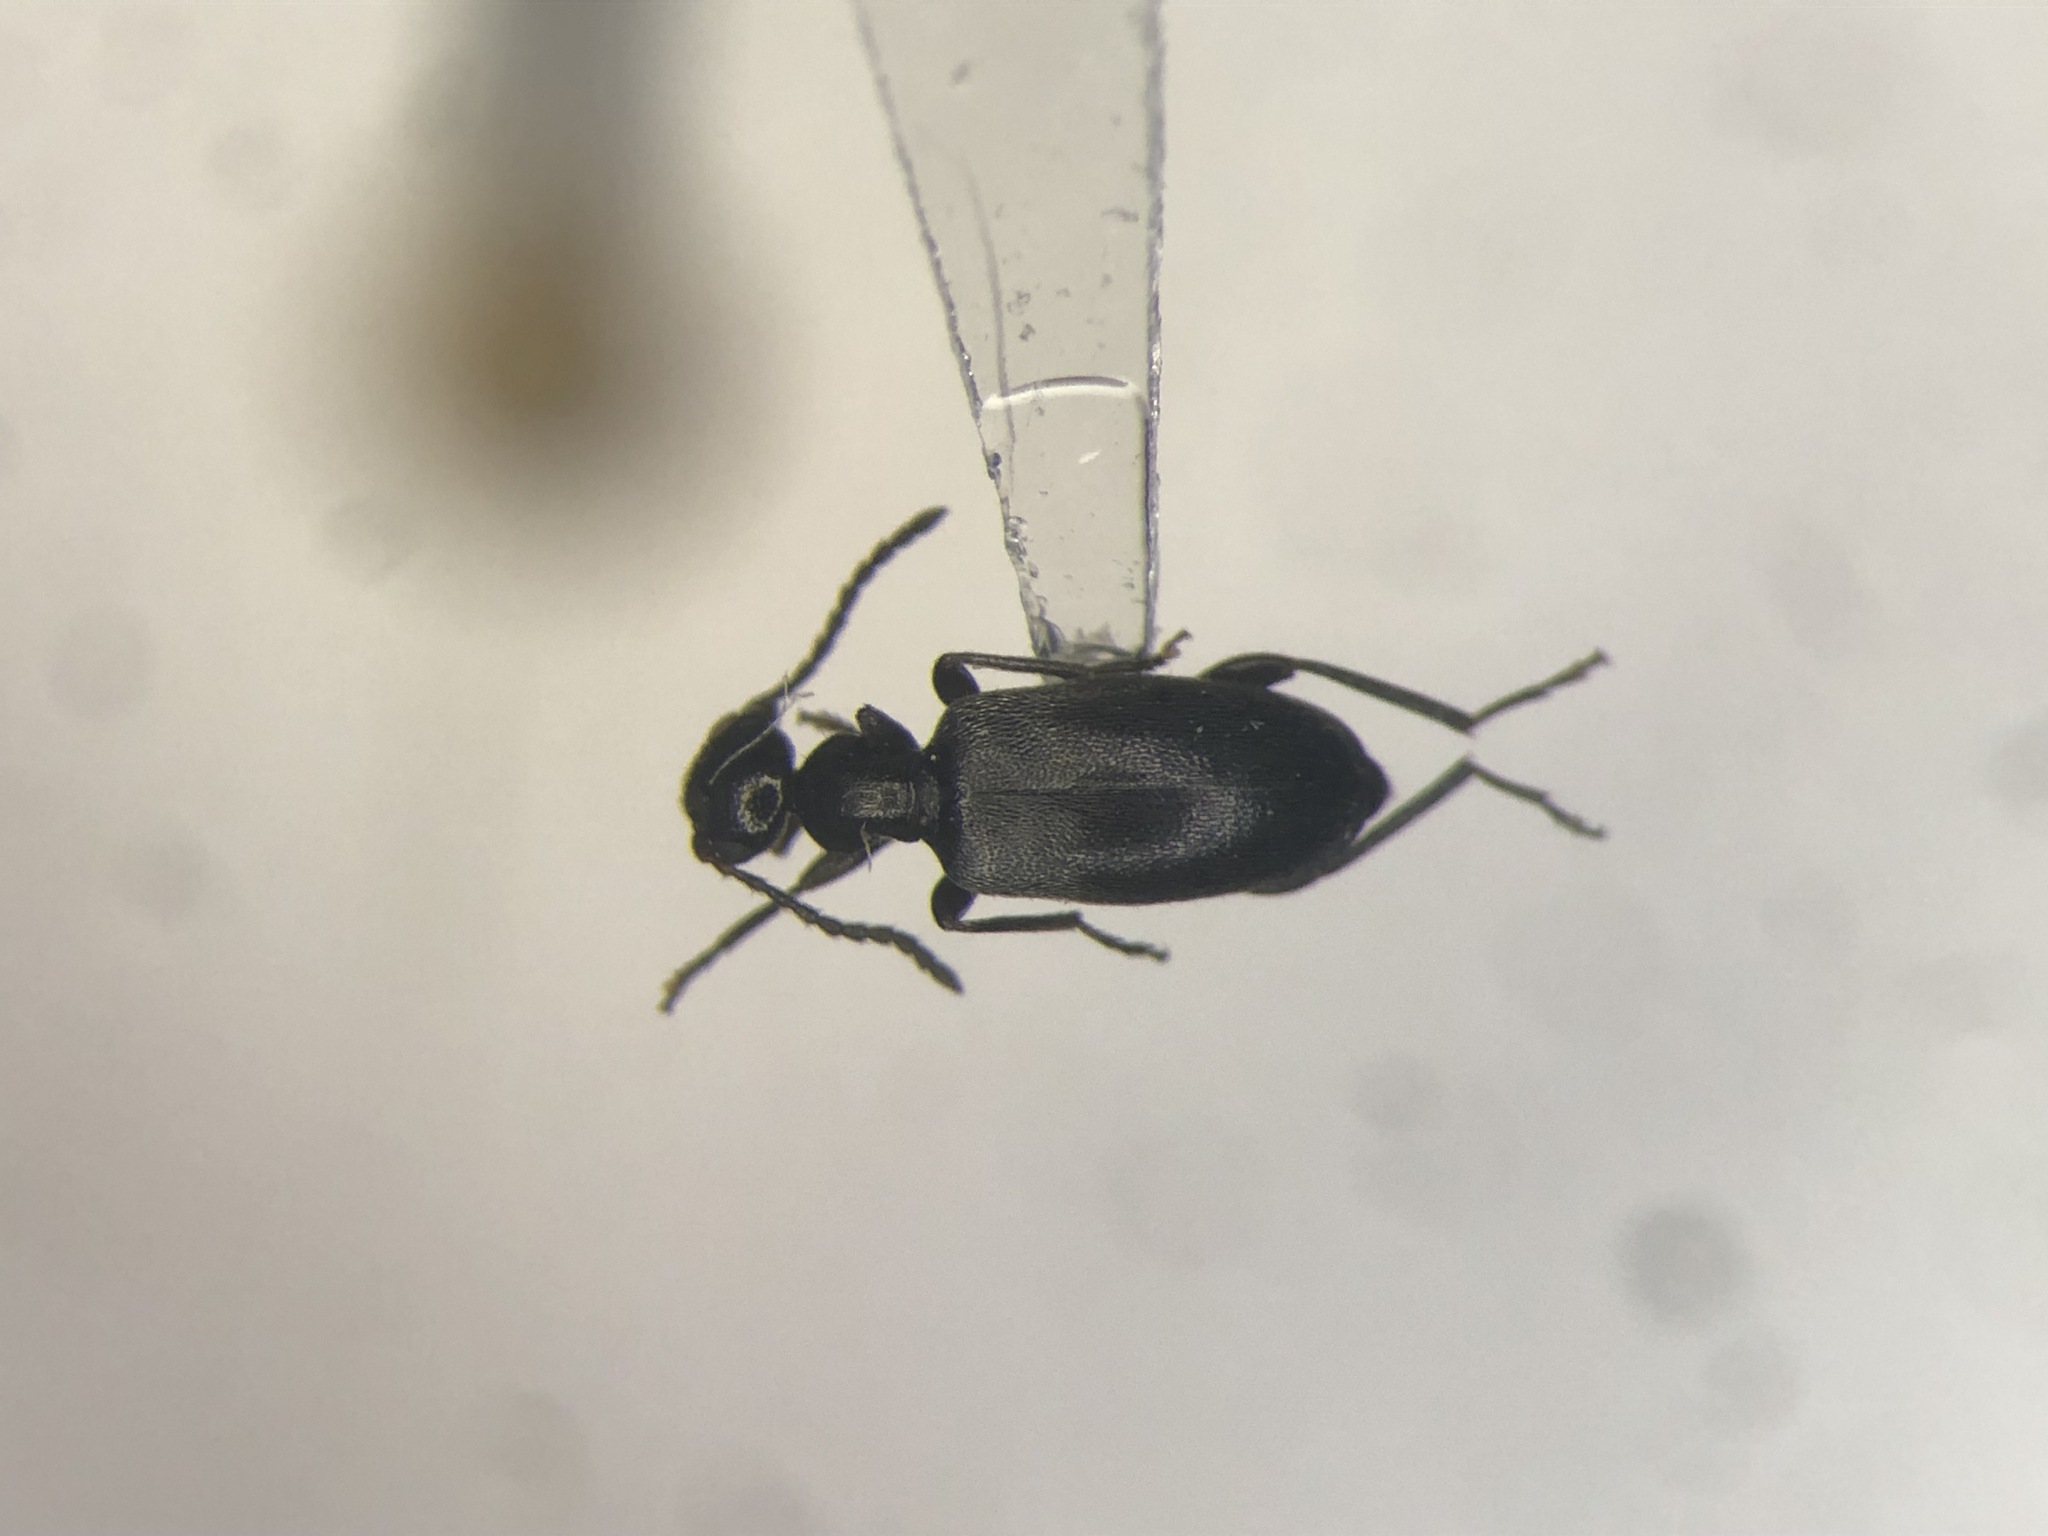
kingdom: Animalia
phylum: Arthropoda
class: Insecta
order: Coleoptera
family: Anthicidae
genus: Ischyropalpus
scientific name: Ischyropalpus obscurus
